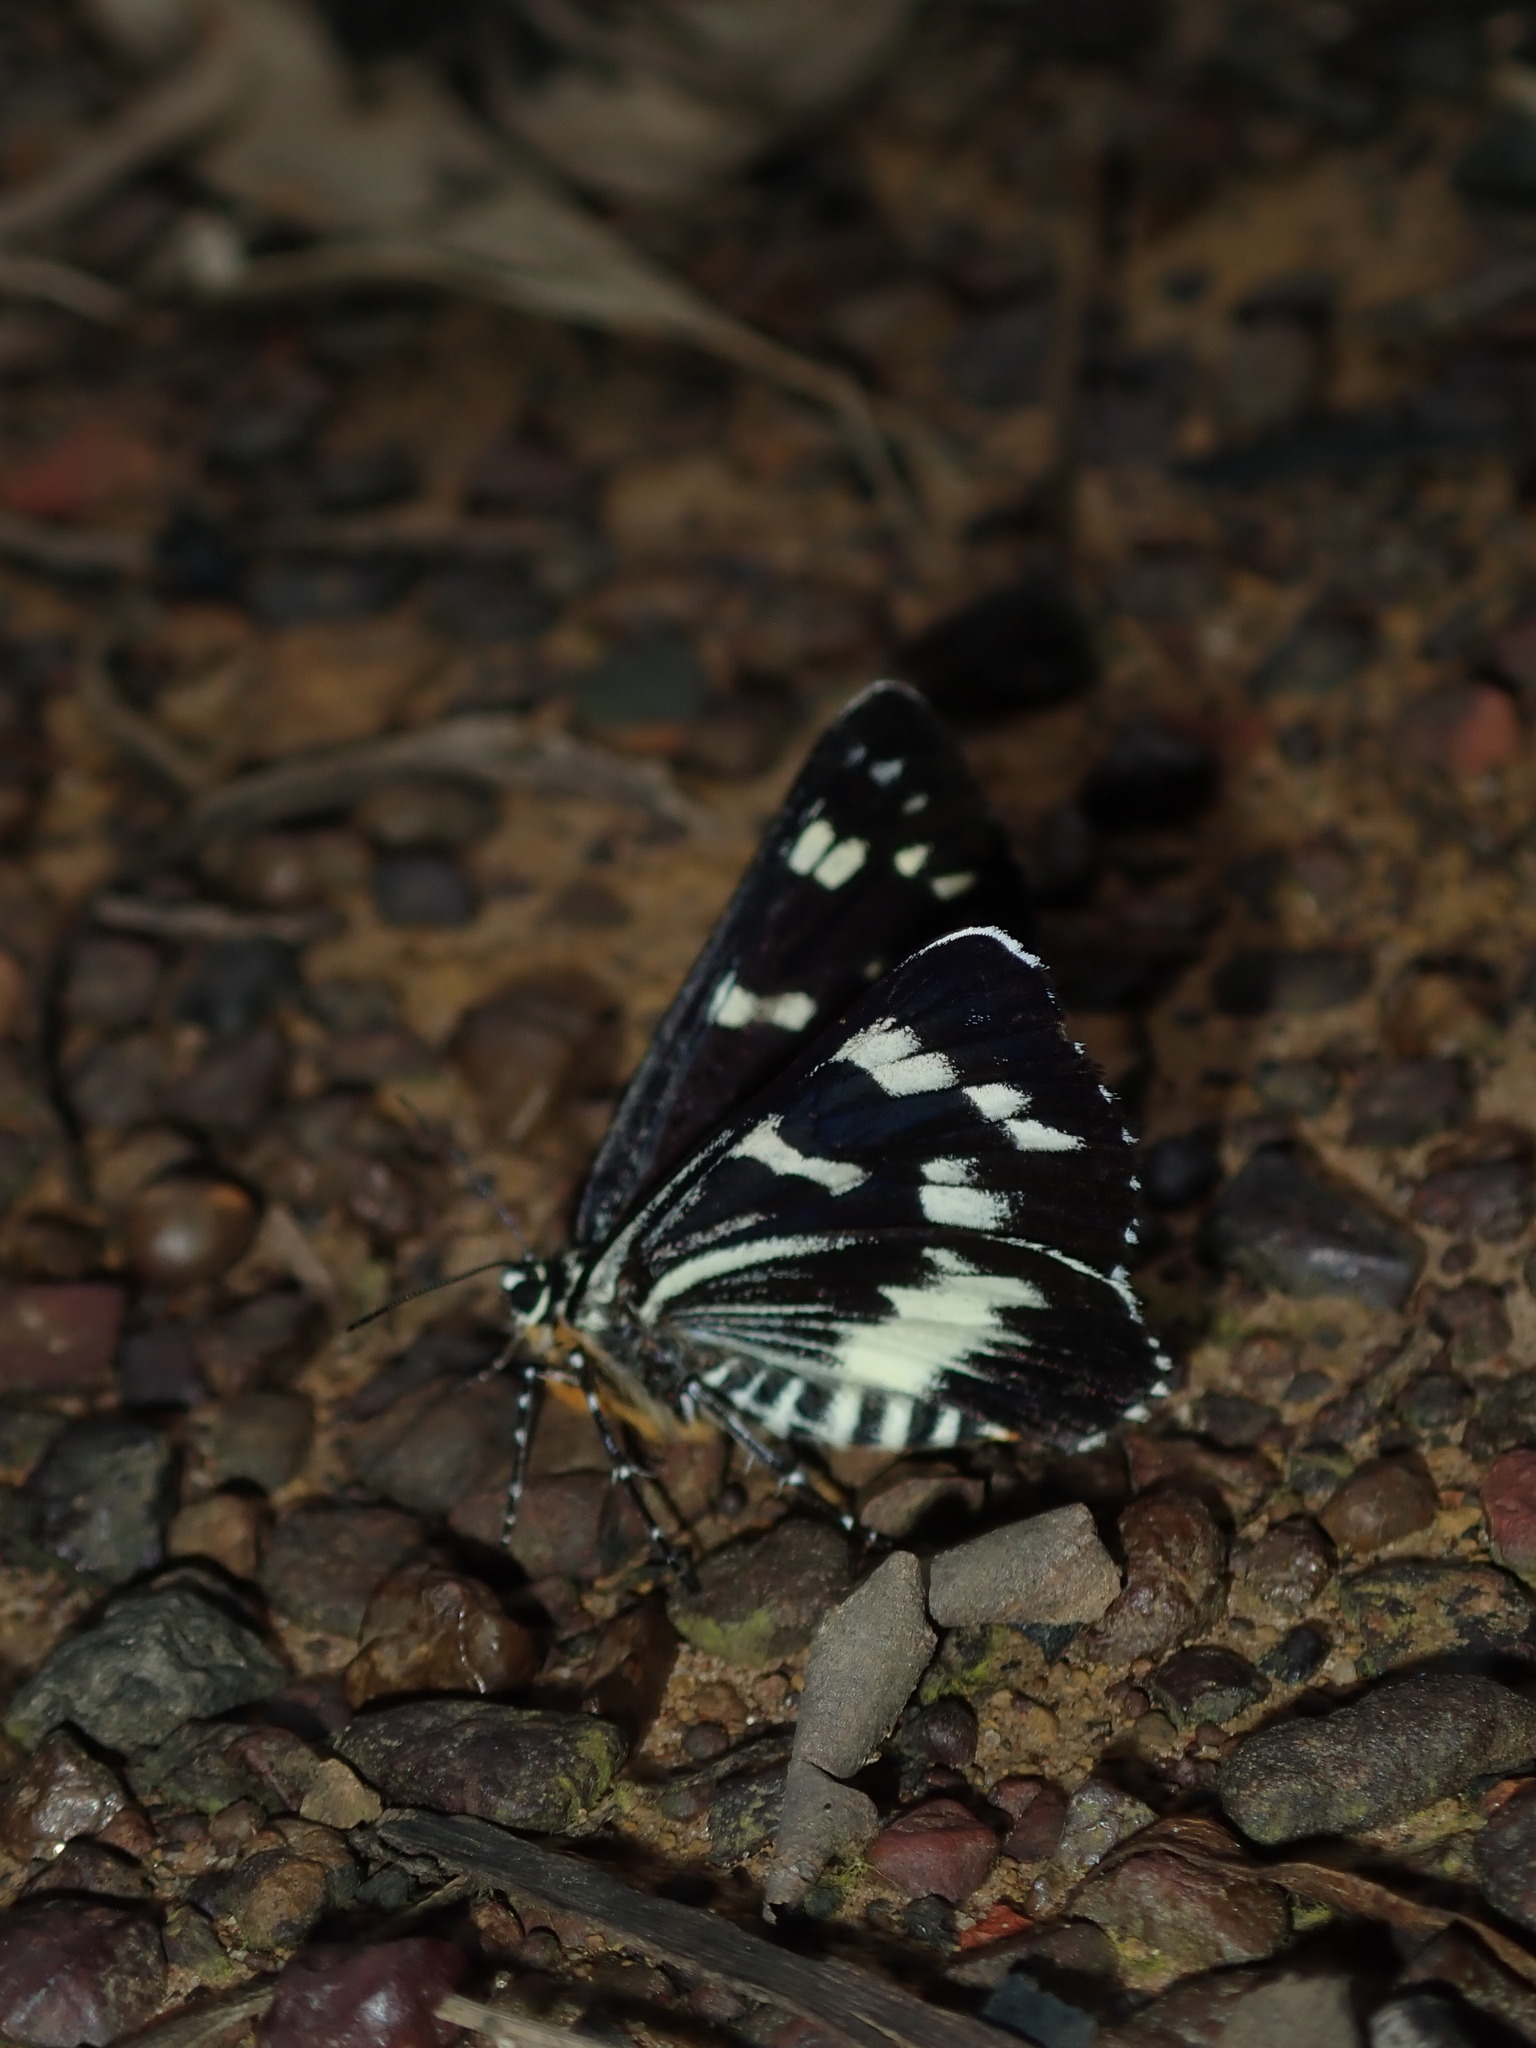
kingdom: Animalia
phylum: Arthropoda
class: Insecta
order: Lepidoptera
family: Noctuidae
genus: Cruria
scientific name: Cruria synopla
